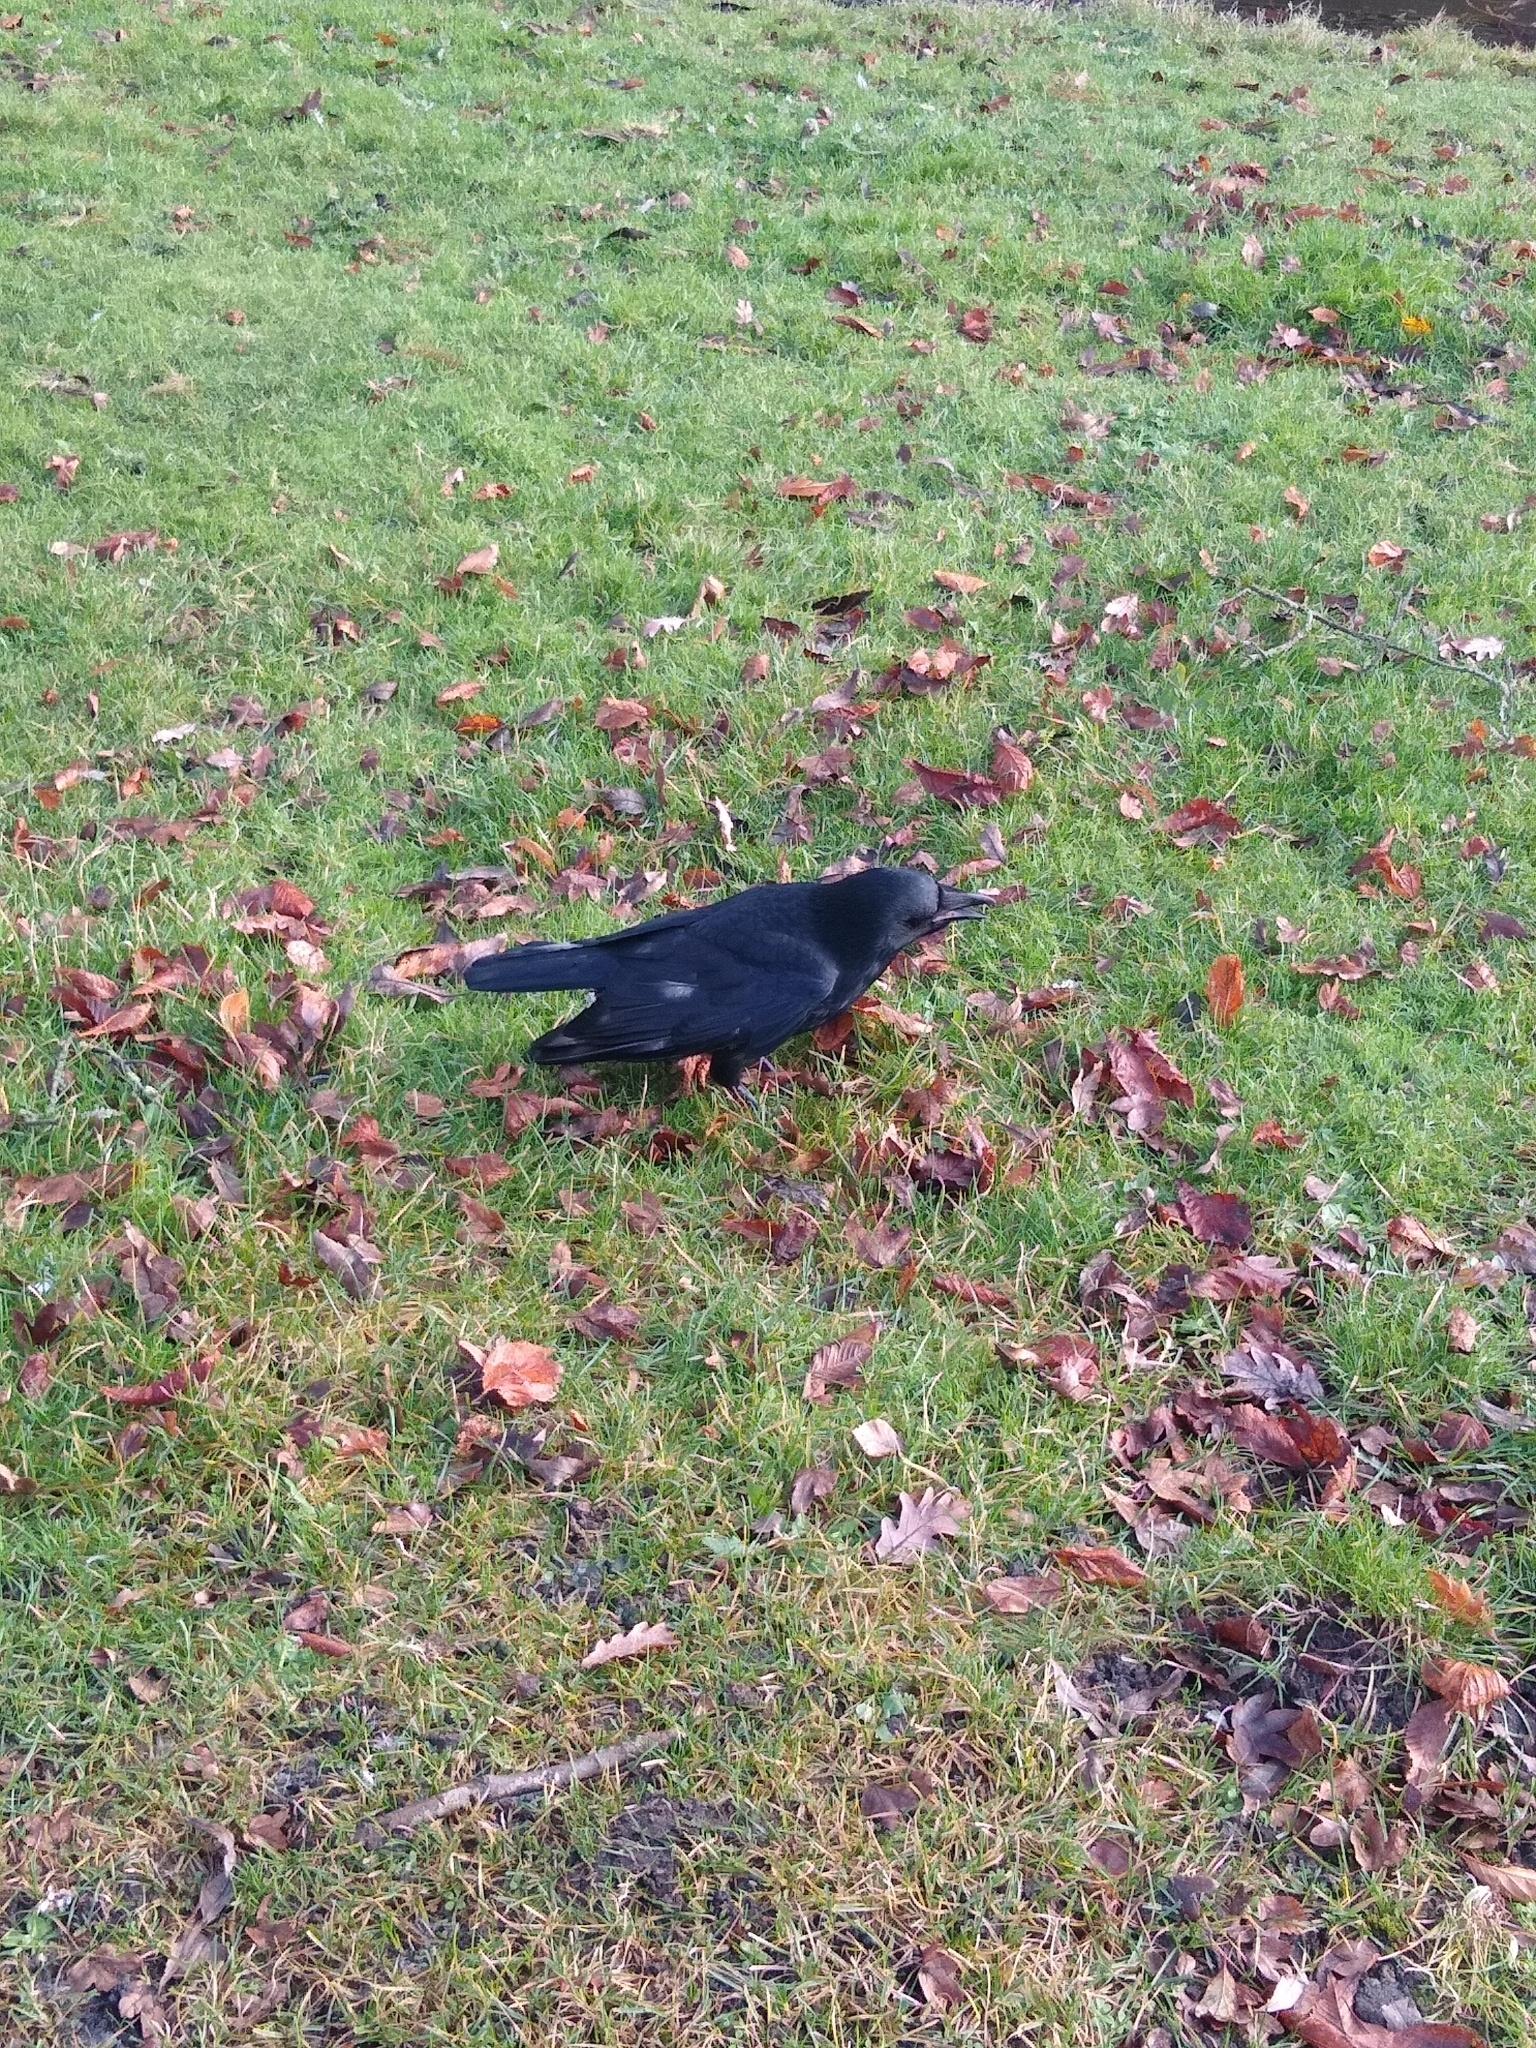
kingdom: Animalia
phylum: Chordata
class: Aves
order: Passeriformes
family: Corvidae
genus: Corvus
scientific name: Corvus corone
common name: Carrion crow
